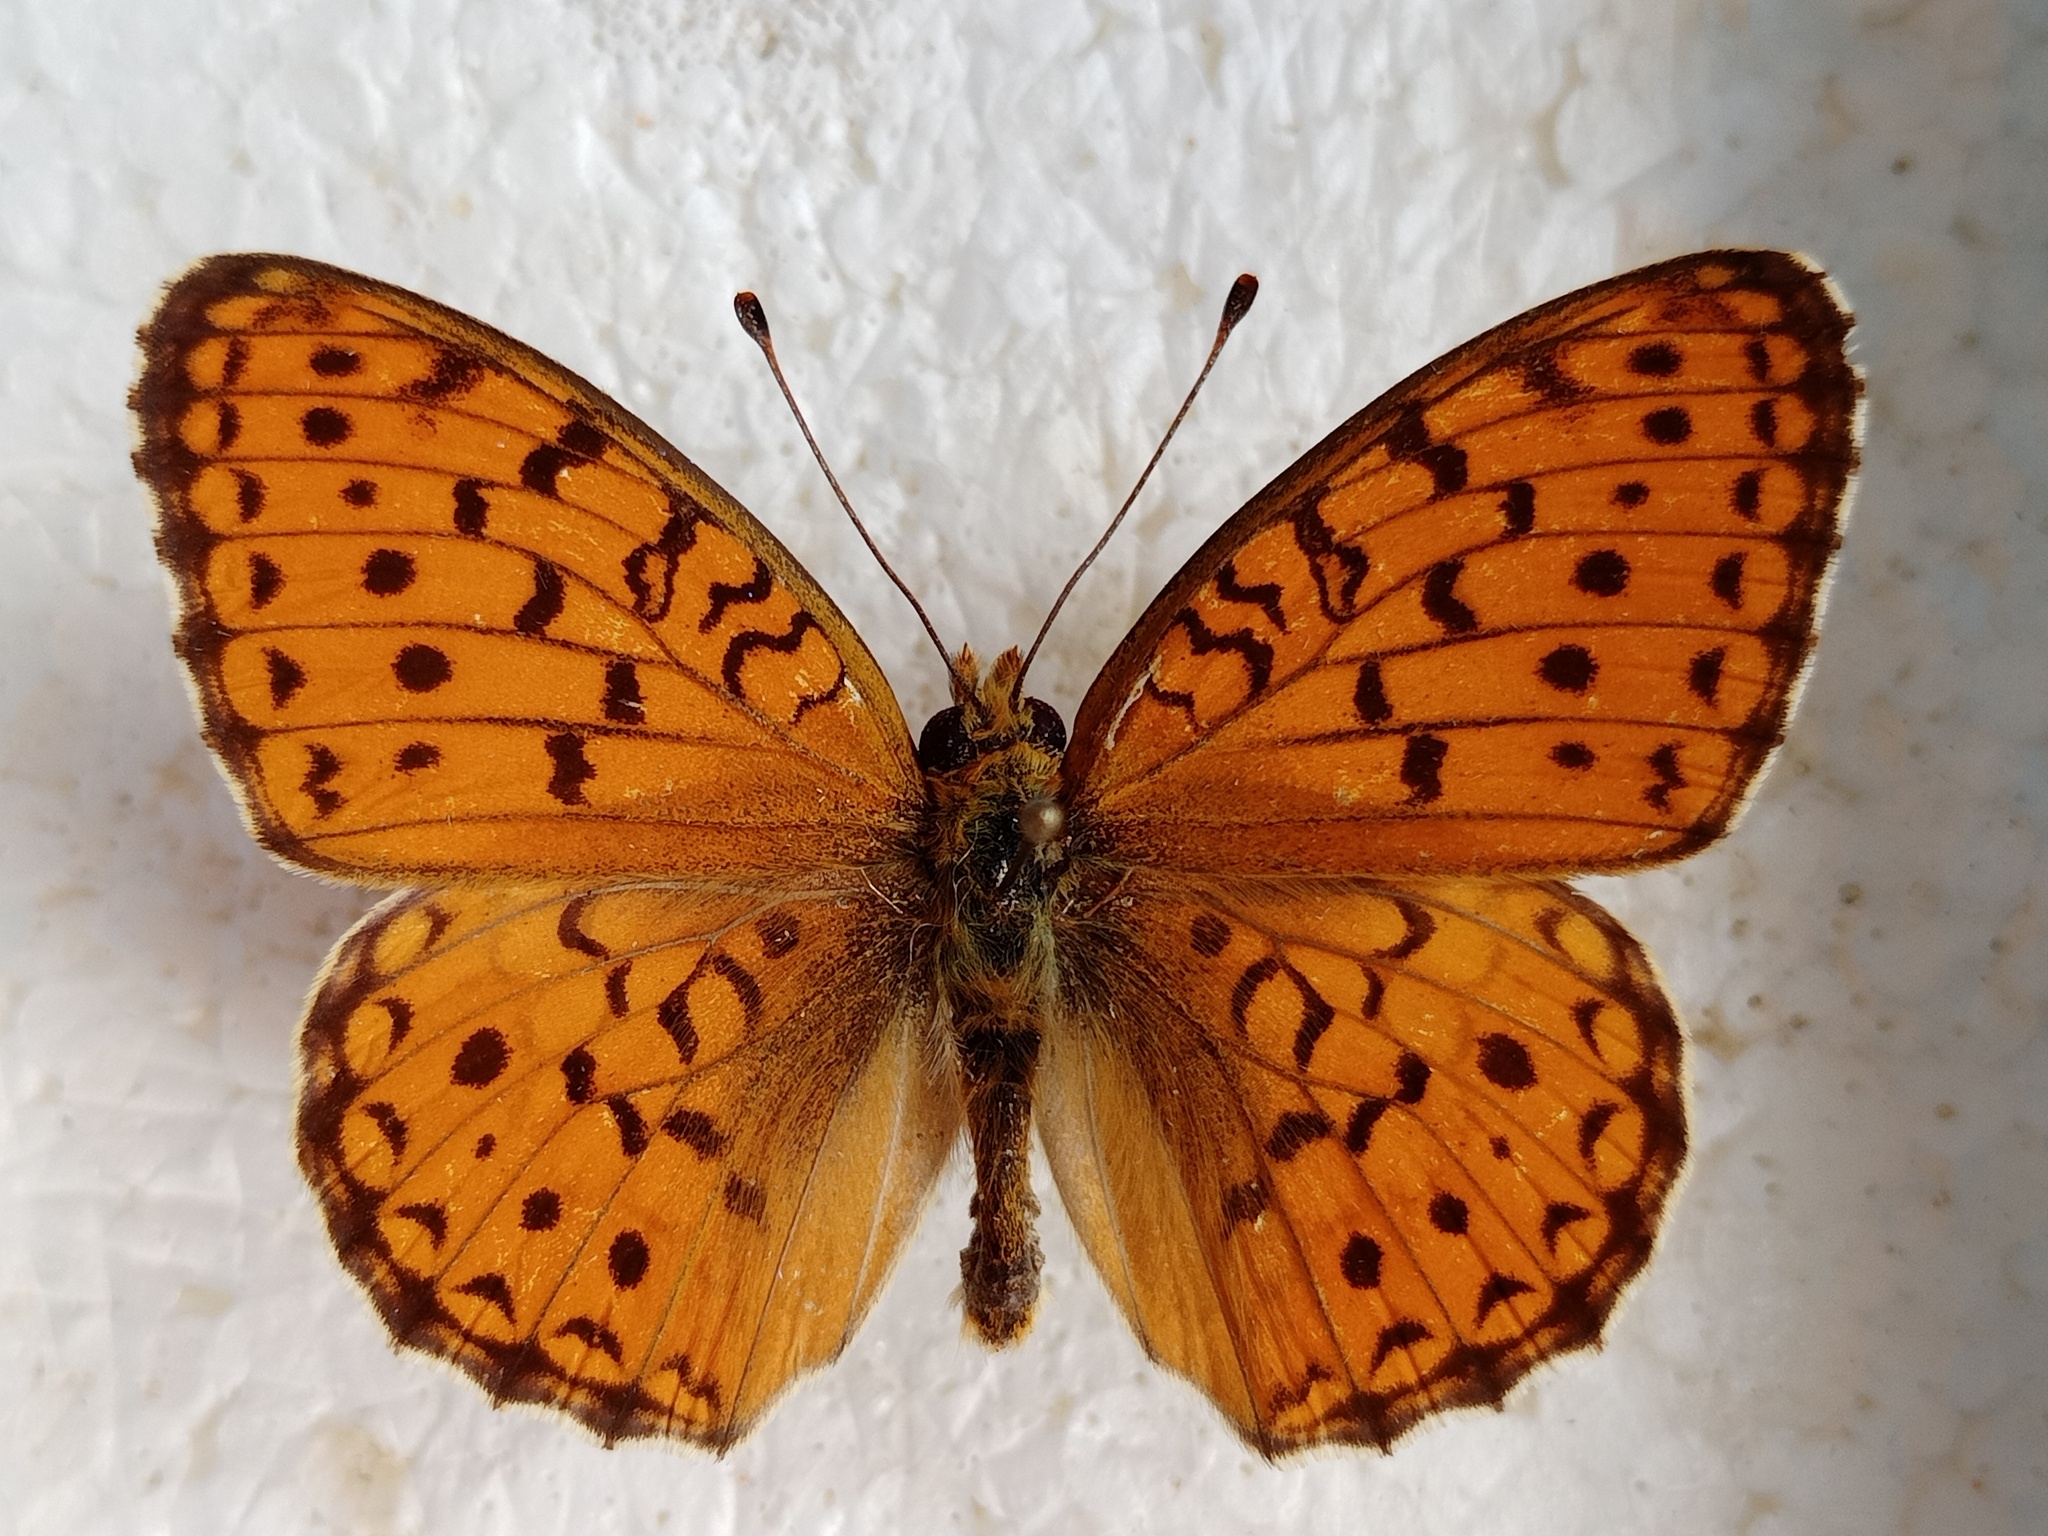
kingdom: Animalia
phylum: Arthropoda
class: Insecta
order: Lepidoptera
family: Nymphalidae
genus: Fabriciana
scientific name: Fabriciana niobe
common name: Niobe fritillary
